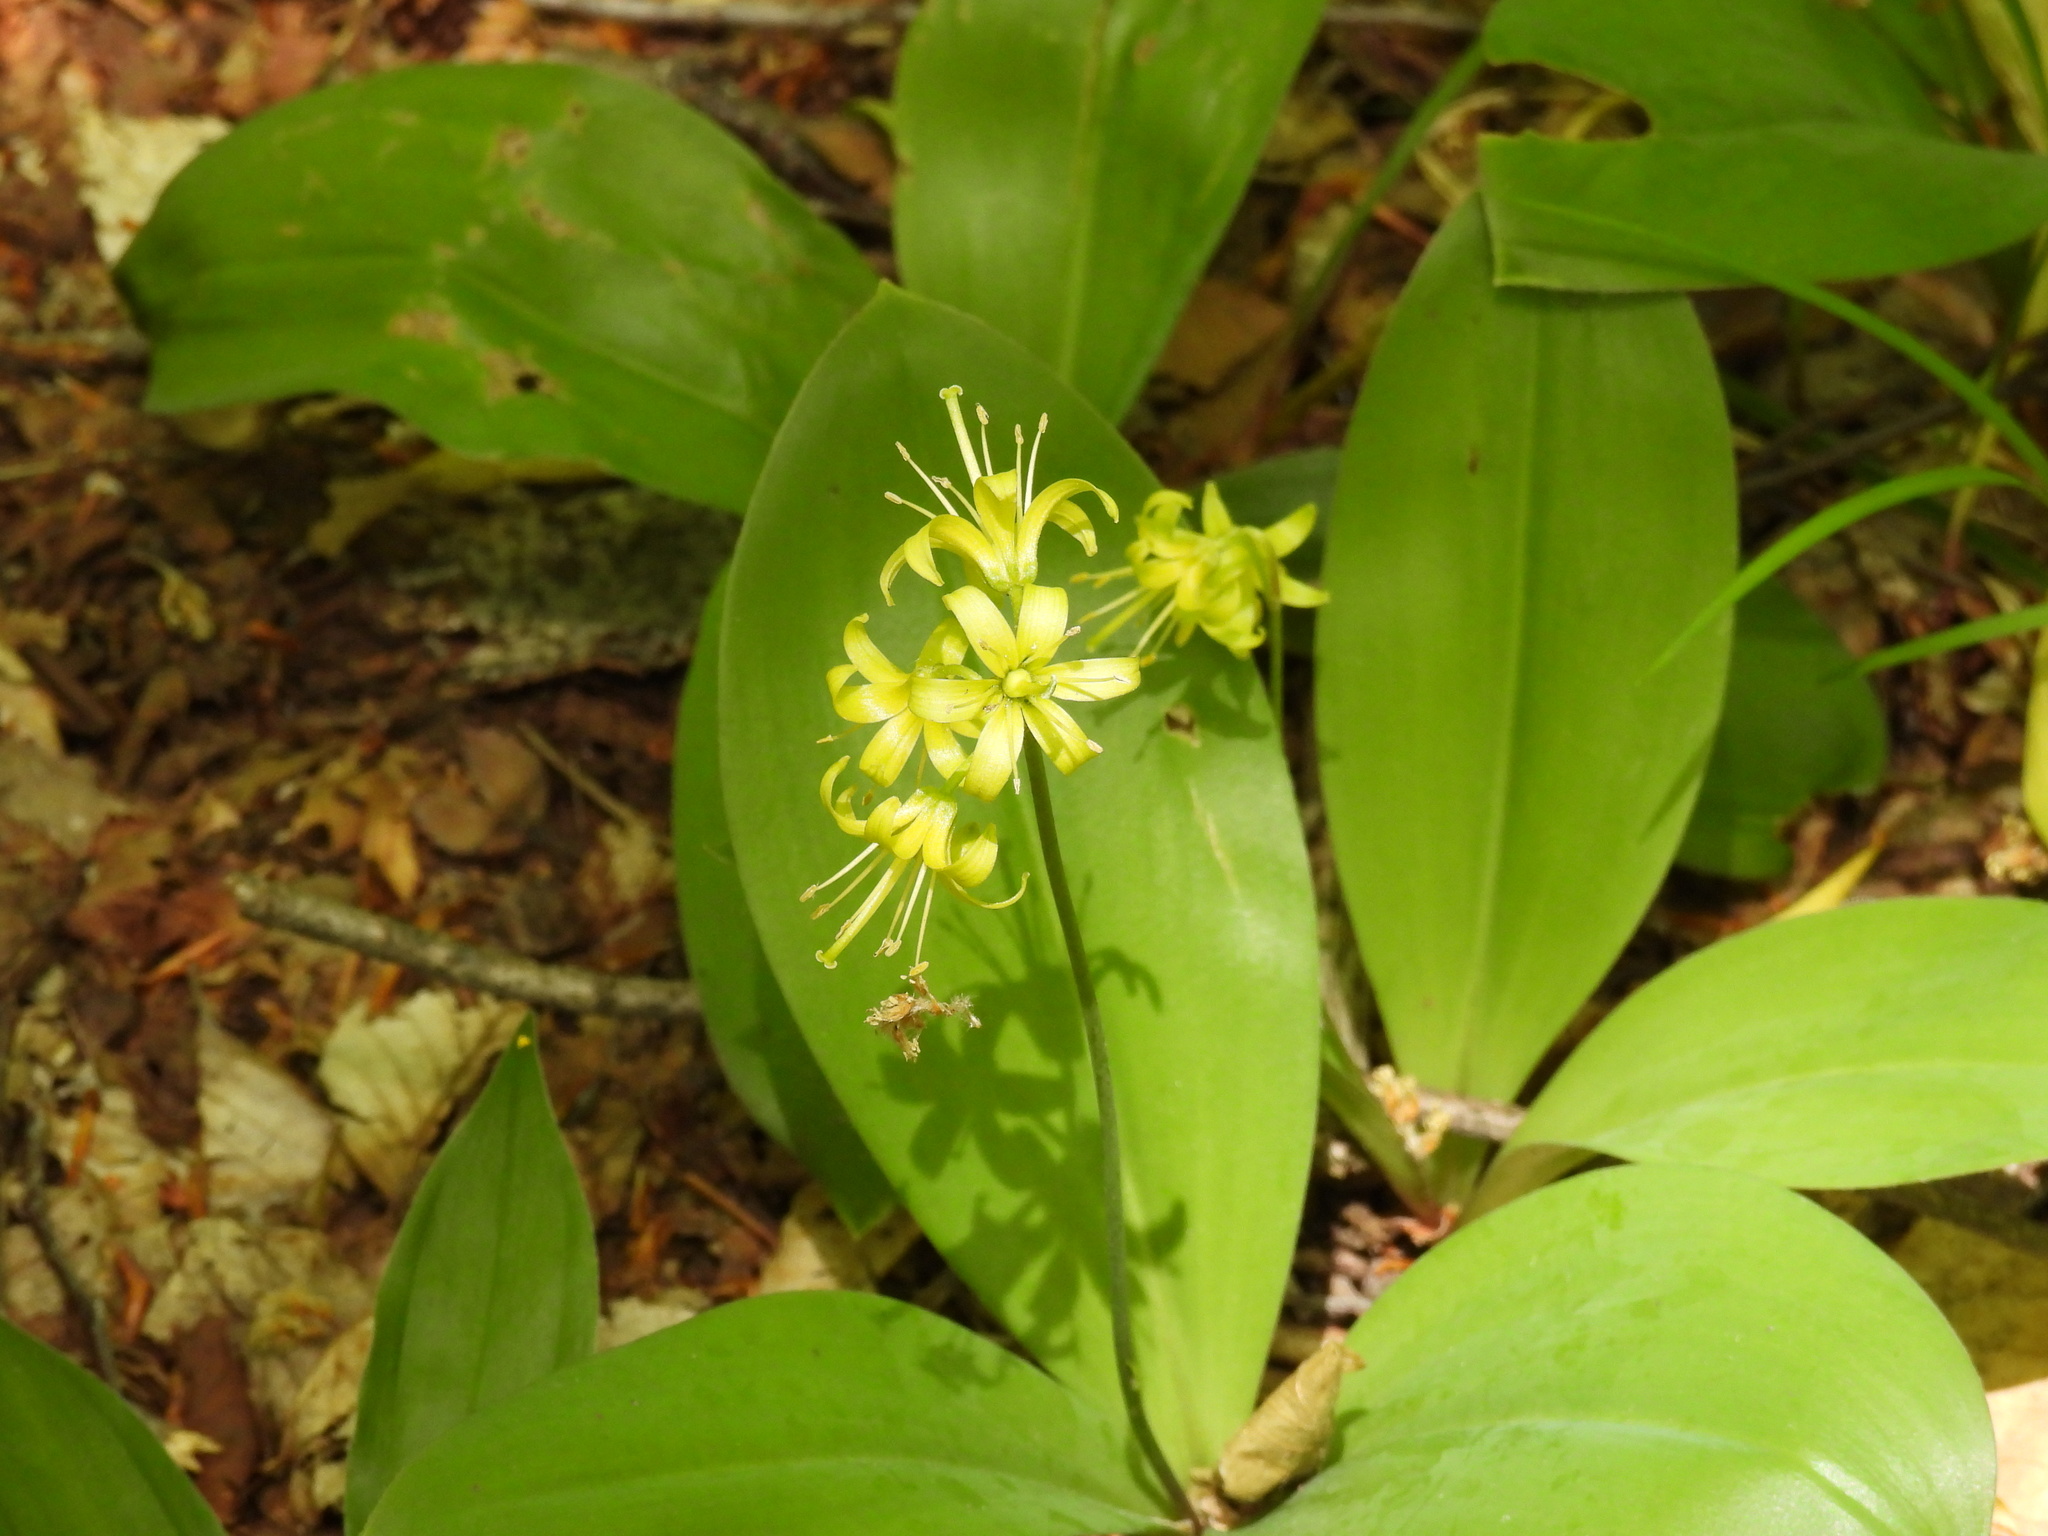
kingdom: Plantae
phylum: Tracheophyta
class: Liliopsida
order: Liliales
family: Liliaceae
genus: Clintonia
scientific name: Clintonia borealis
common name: Yellow clintonia
